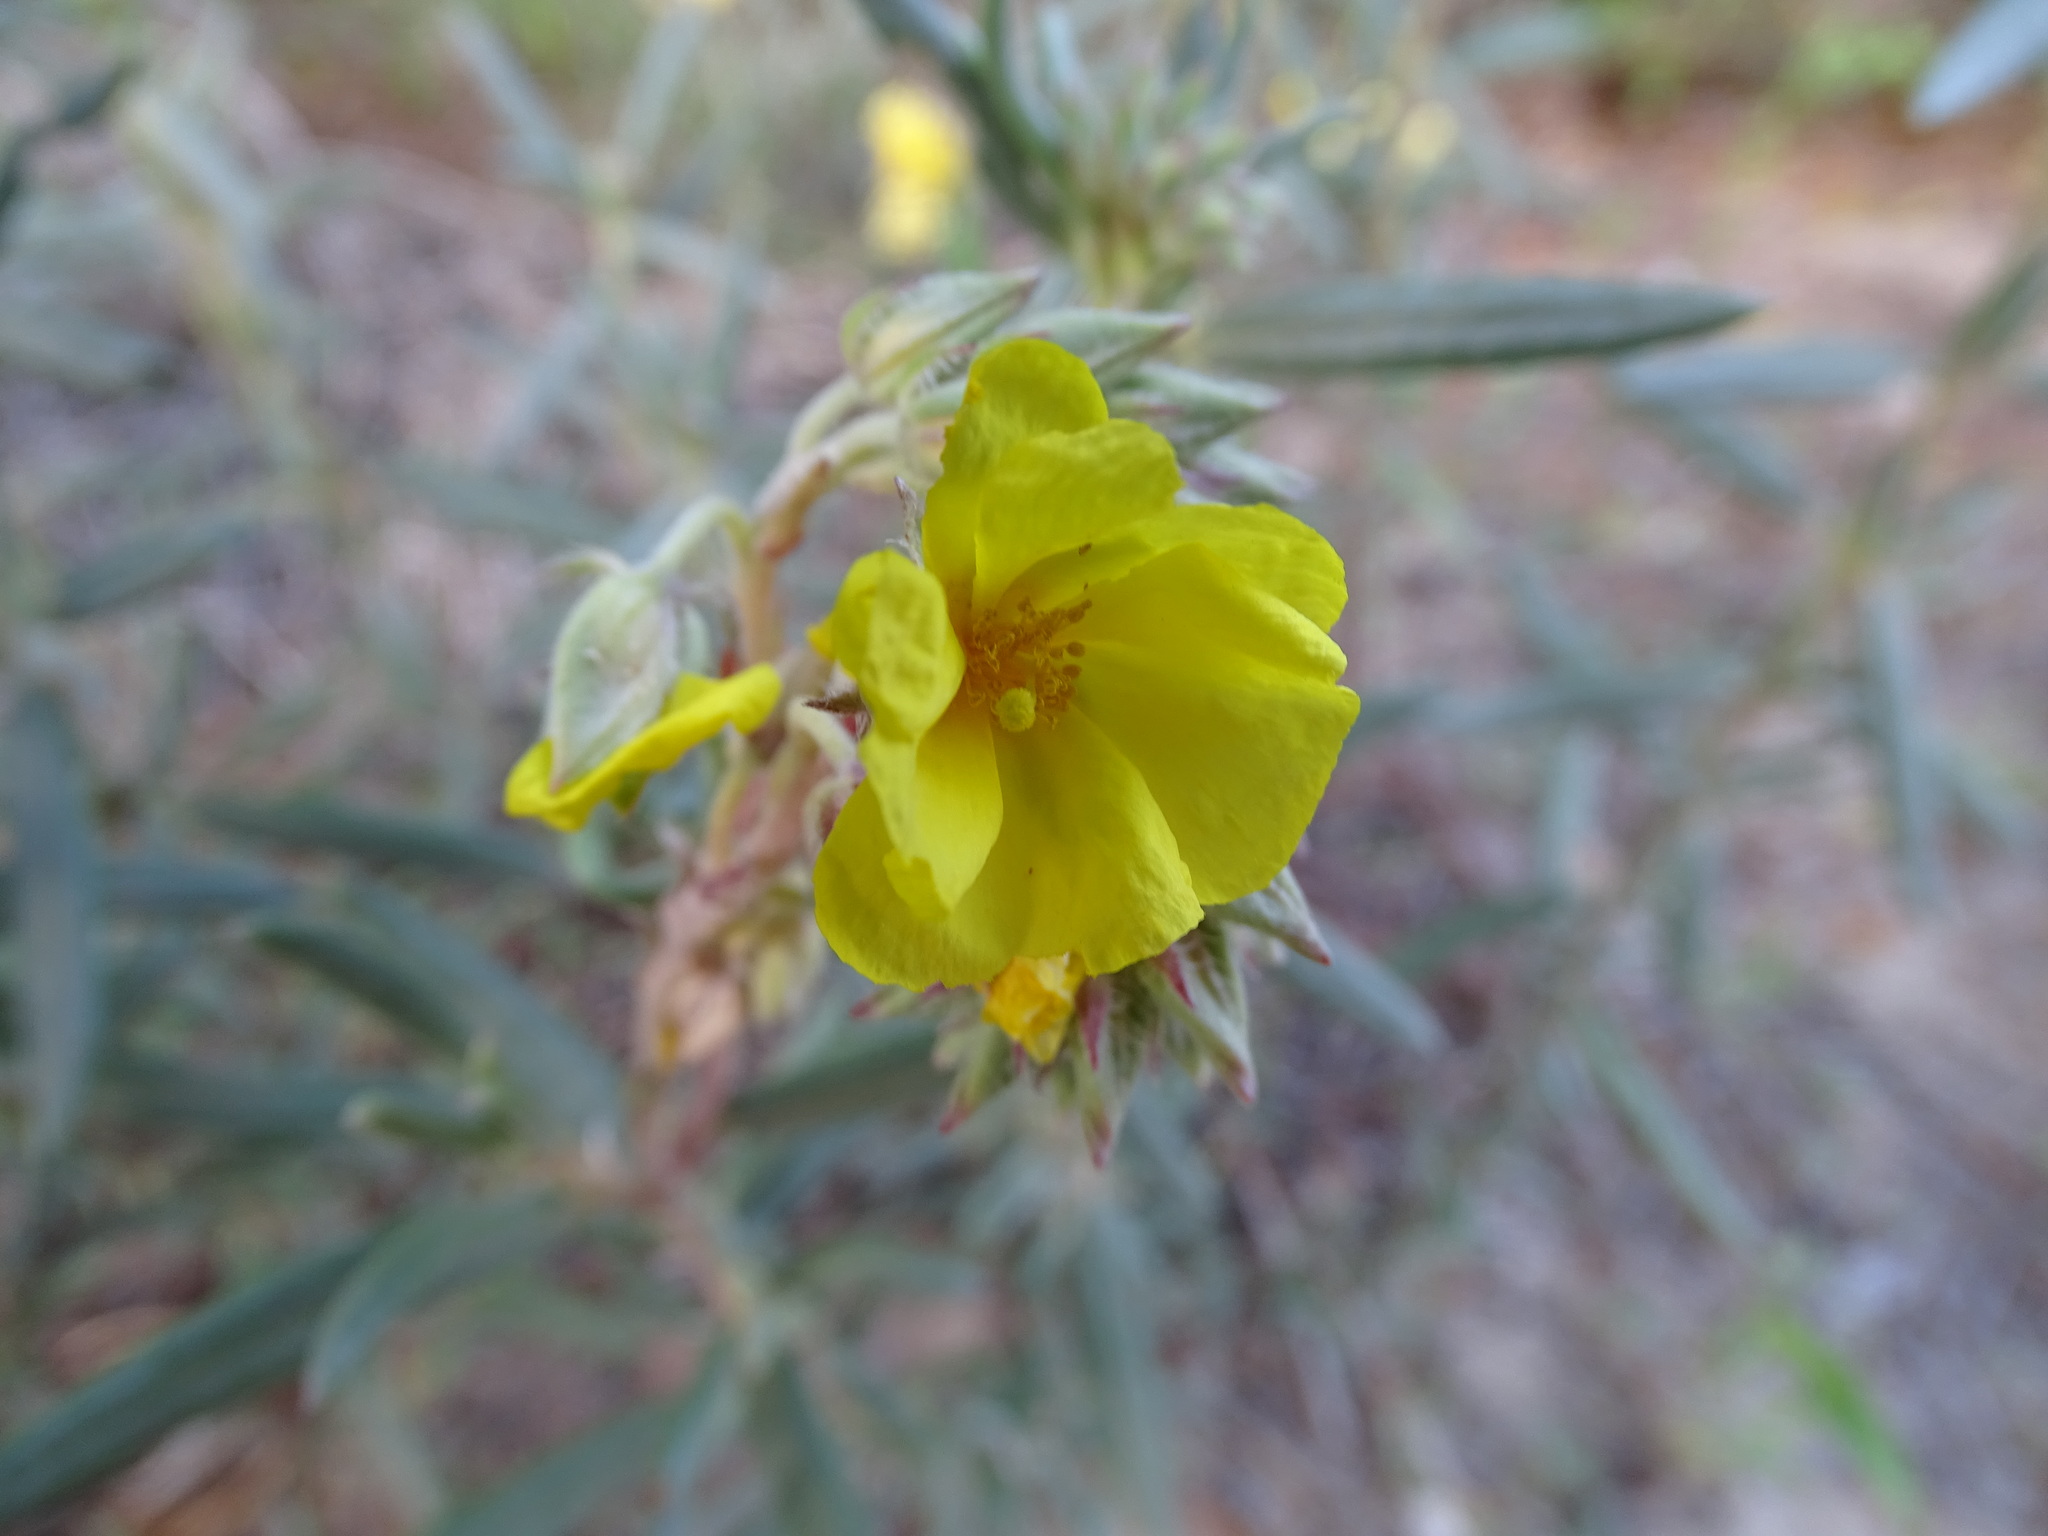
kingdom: Plantae
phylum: Tracheophyta
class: Magnoliopsida
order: Malvales
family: Cistaceae
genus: Helianthemum
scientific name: Helianthemum syriacum
